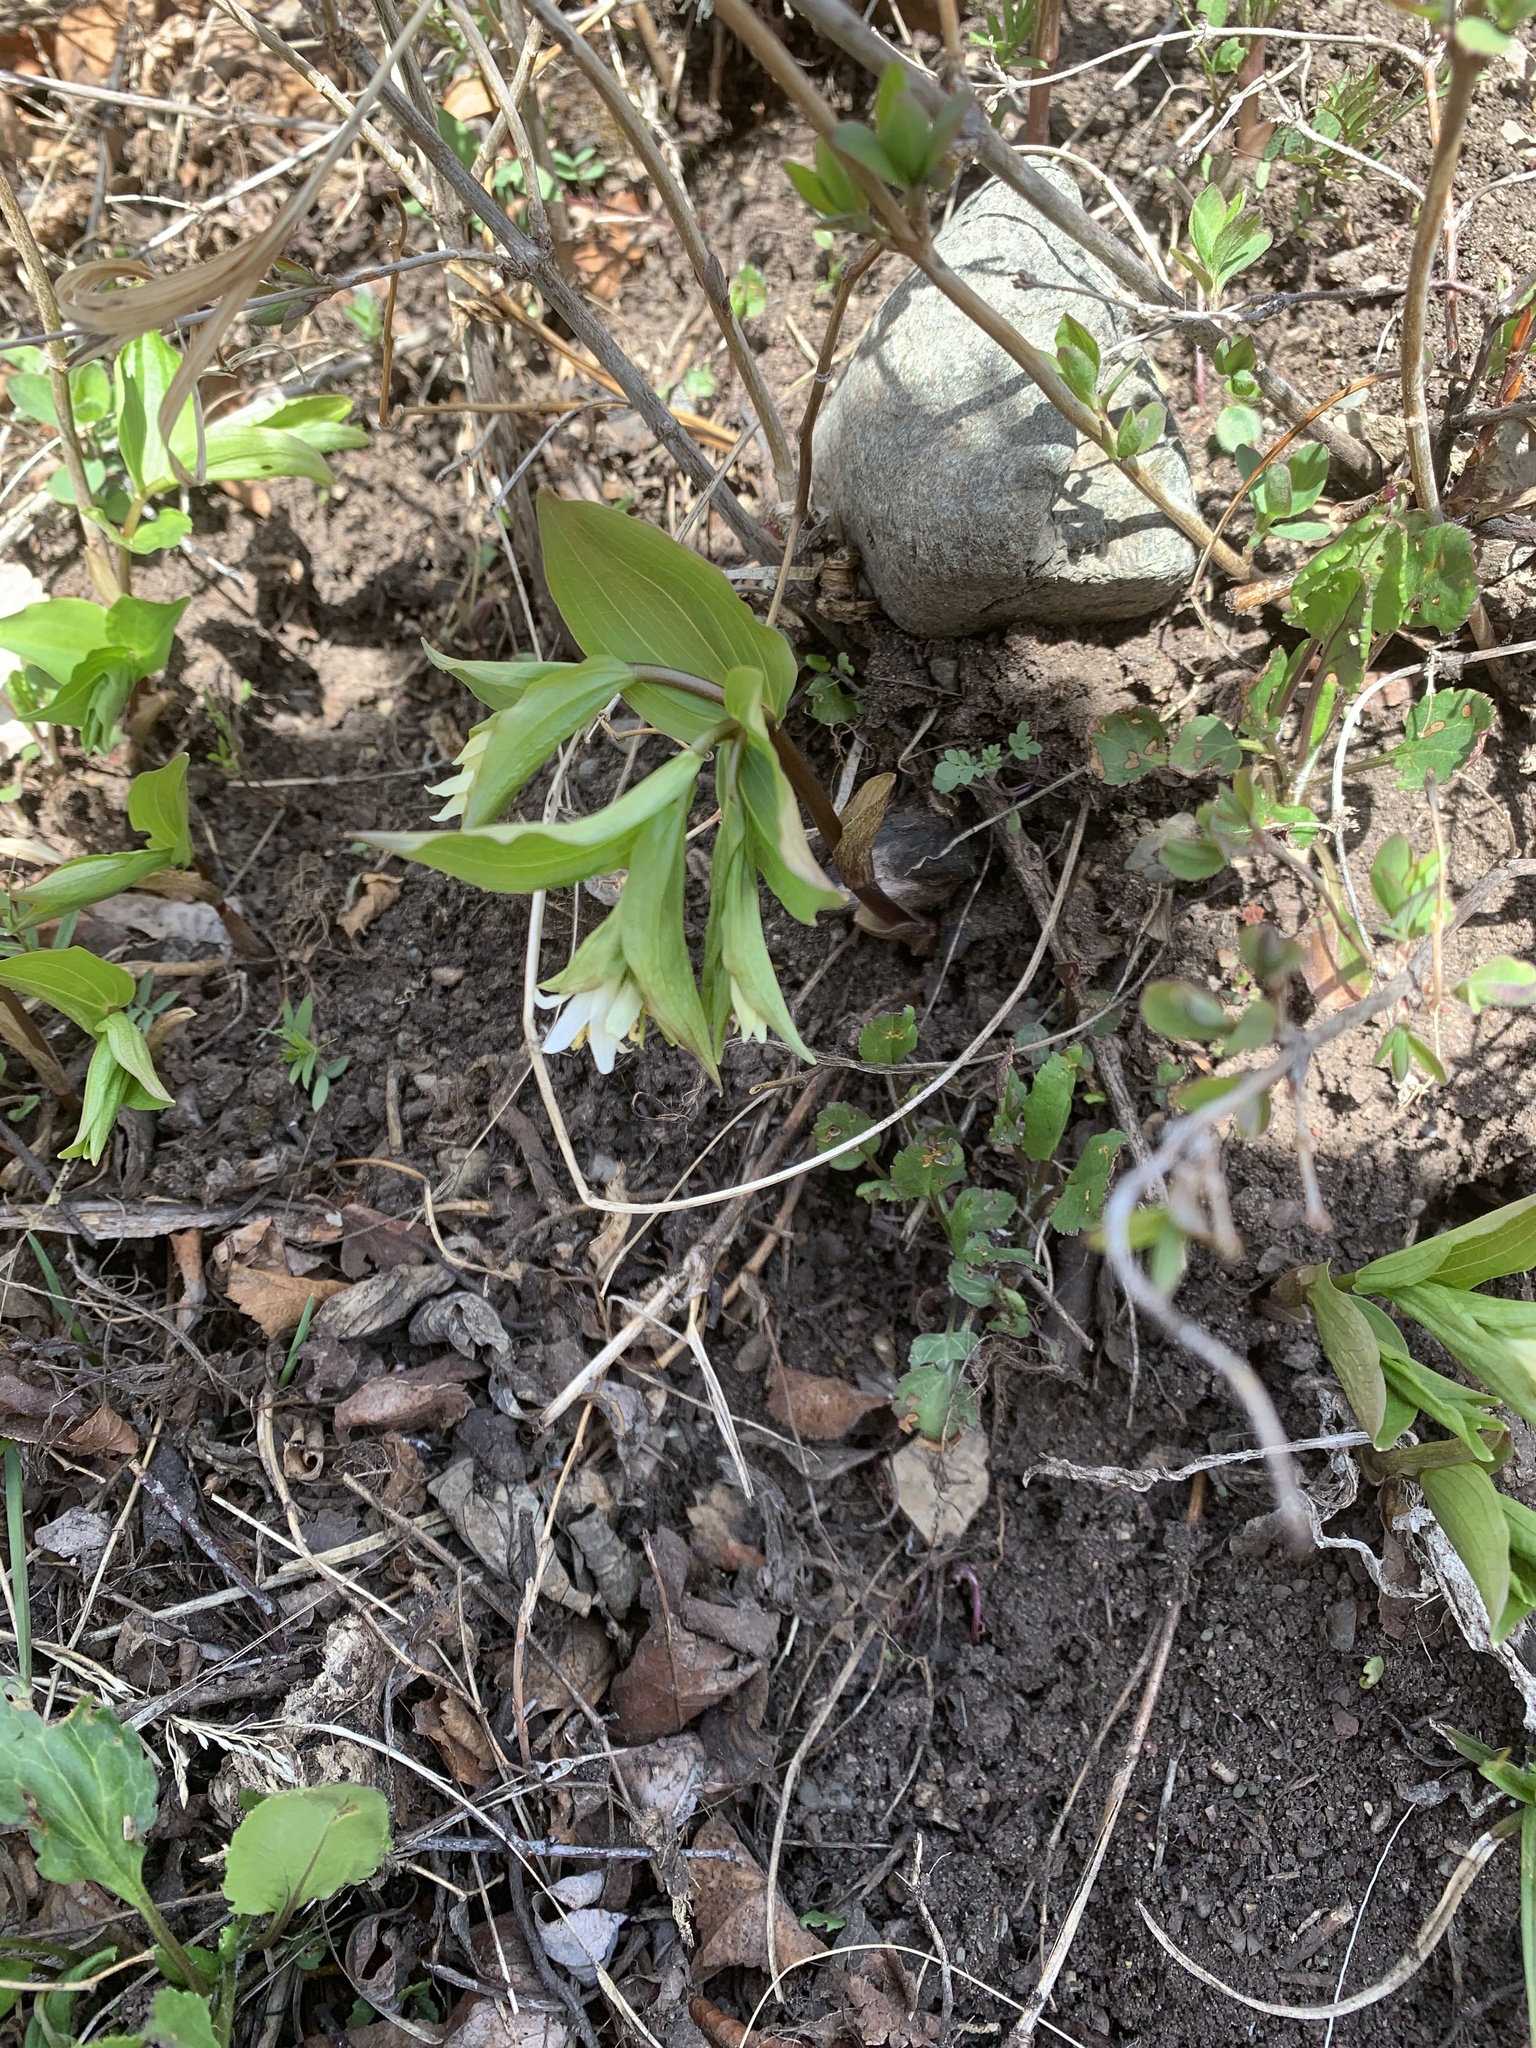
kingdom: Plantae
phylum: Tracheophyta
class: Liliopsida
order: Liliales
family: Liliaceae
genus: Prosartes
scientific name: Prosartes trachycarpa
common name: Rough-fruit fairy-bells
